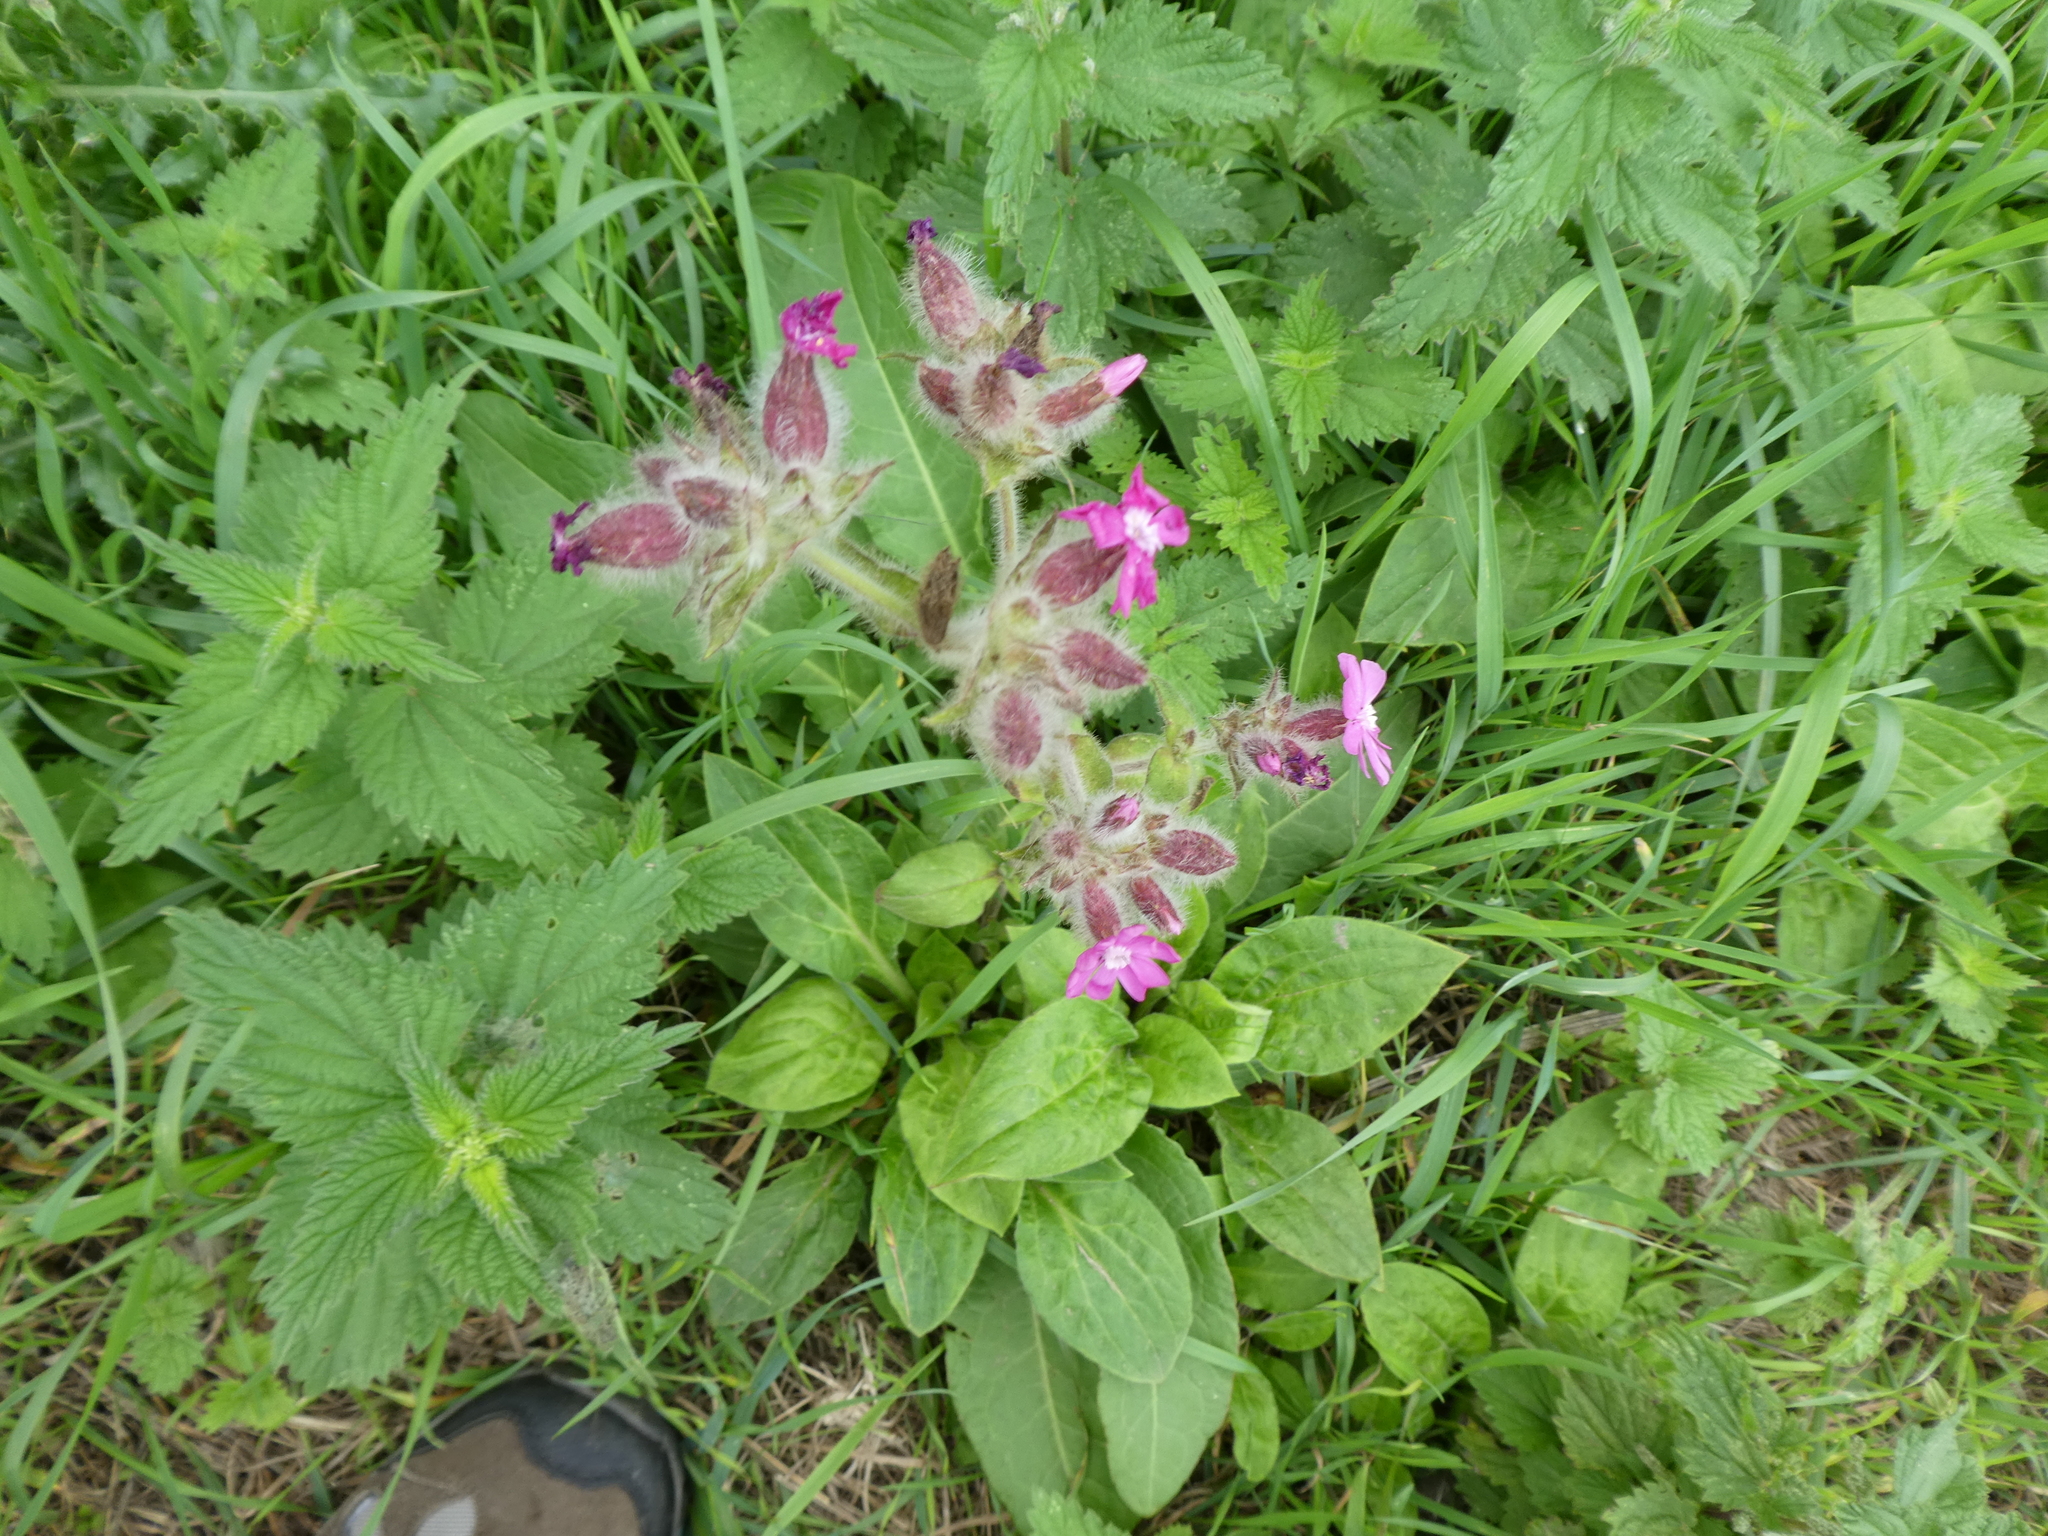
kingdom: Plantae
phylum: Tracheophyta
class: Magnoliopsida
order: Caryophyllales
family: Caryophyllaceae
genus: Silene
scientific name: Silene dioica
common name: Red campion
